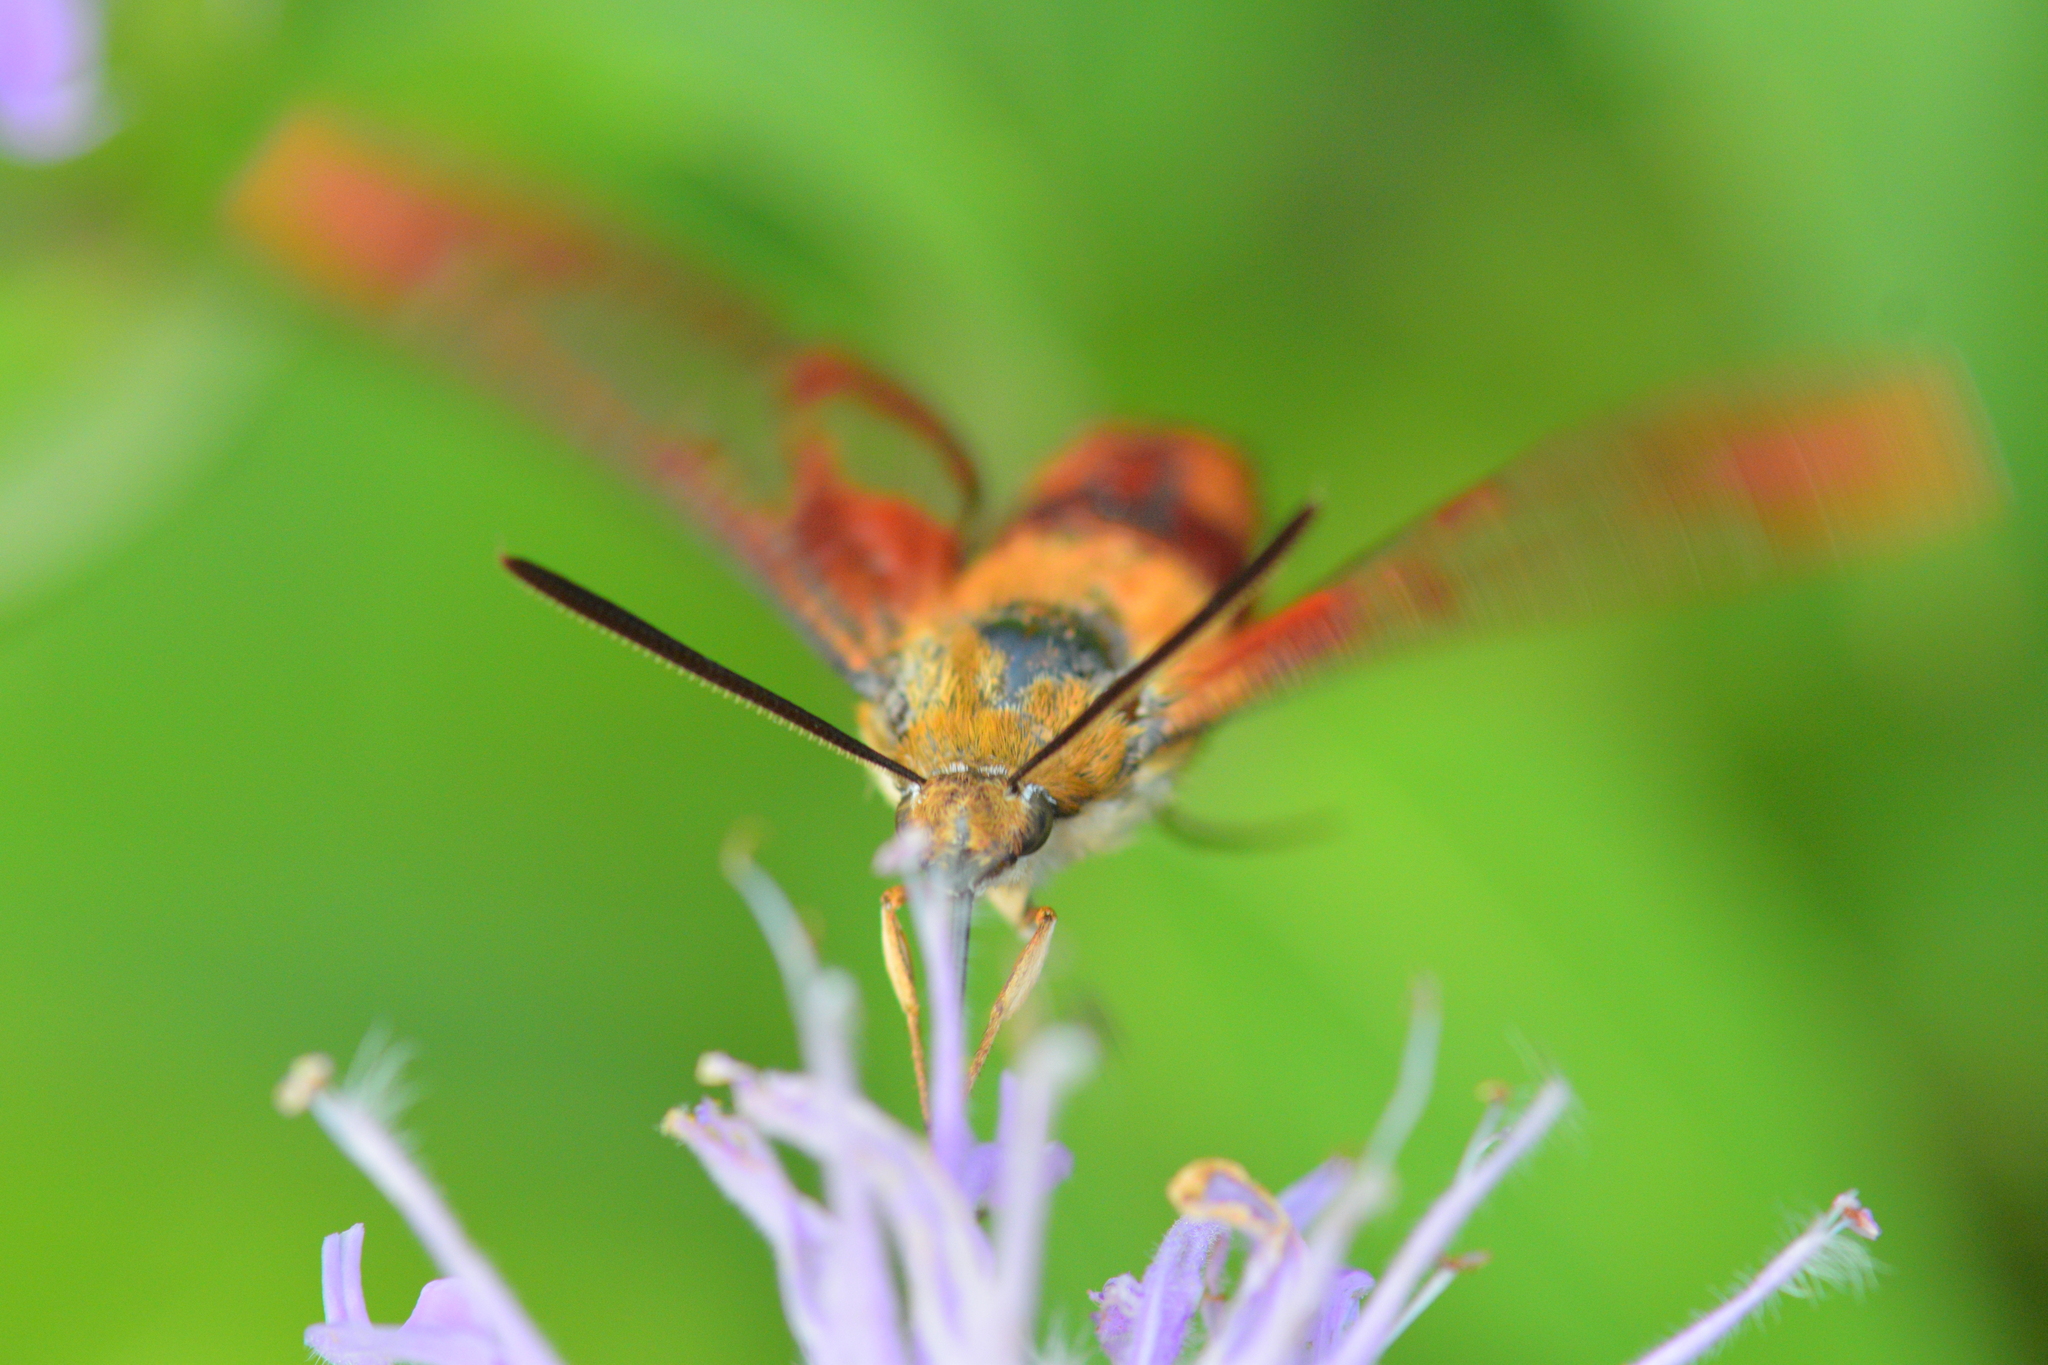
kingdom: Animalia
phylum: Arthropoda
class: Insecta
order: Lepidoptera
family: Sphingidae
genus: Hemaris
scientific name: Hemaris thysbe
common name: Common clear-wing
